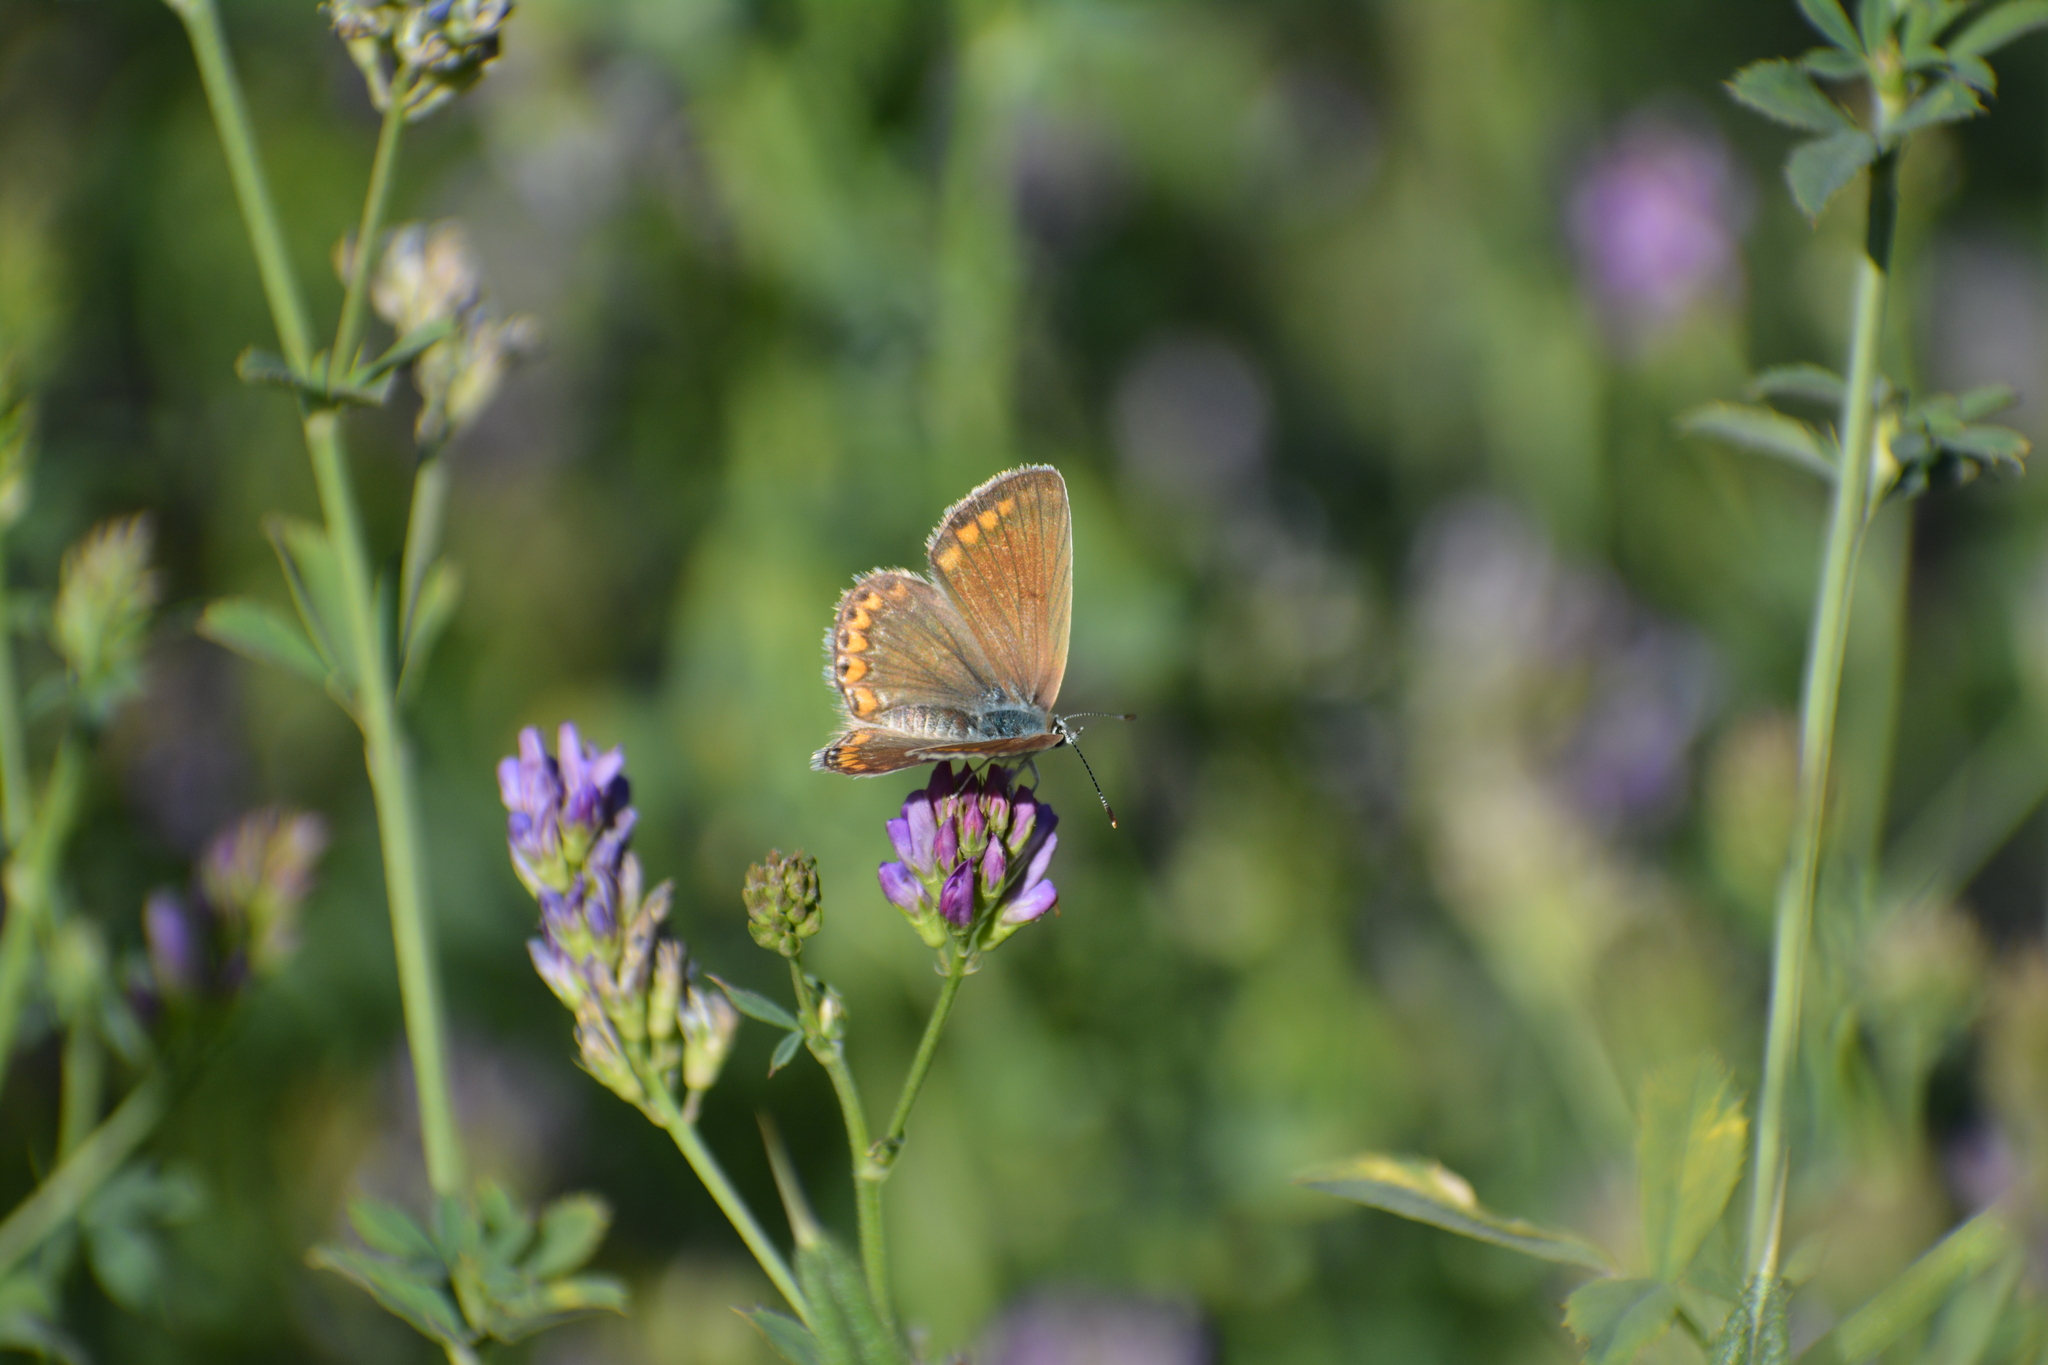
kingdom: Animalia
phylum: Arthropoda
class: Insecta
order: Lepidoptera
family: Lycaenidae
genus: Polyommatus
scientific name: Polyommatus icarus
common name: Common blue
